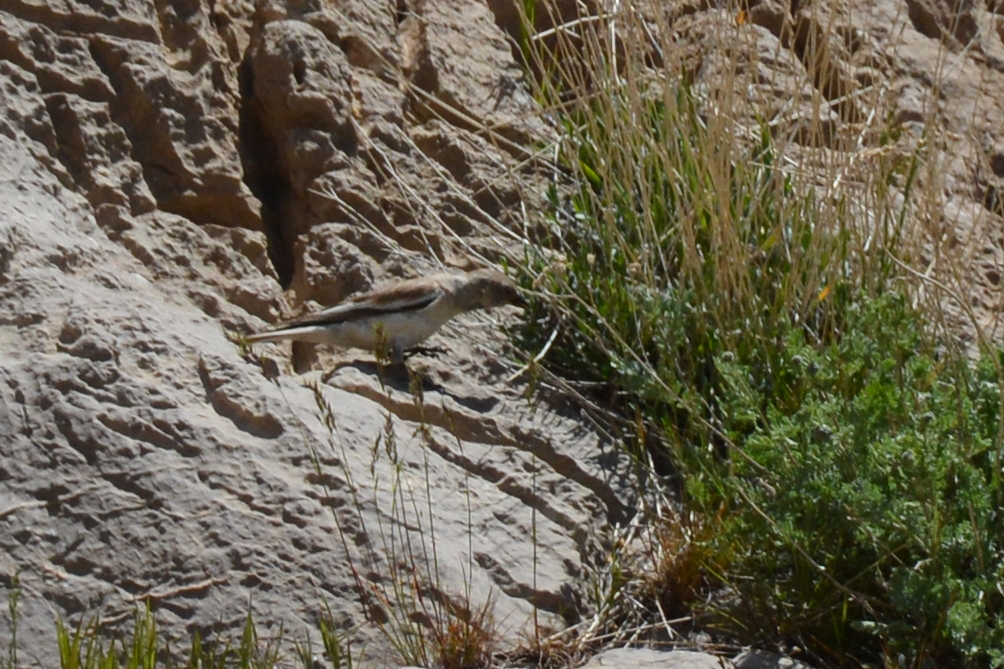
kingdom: Animalia
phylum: Chordata
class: Aves
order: Passeriformes
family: Passeridae
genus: Montifringilla
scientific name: Montifringilla nivalis
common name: White-winged snowfinch
